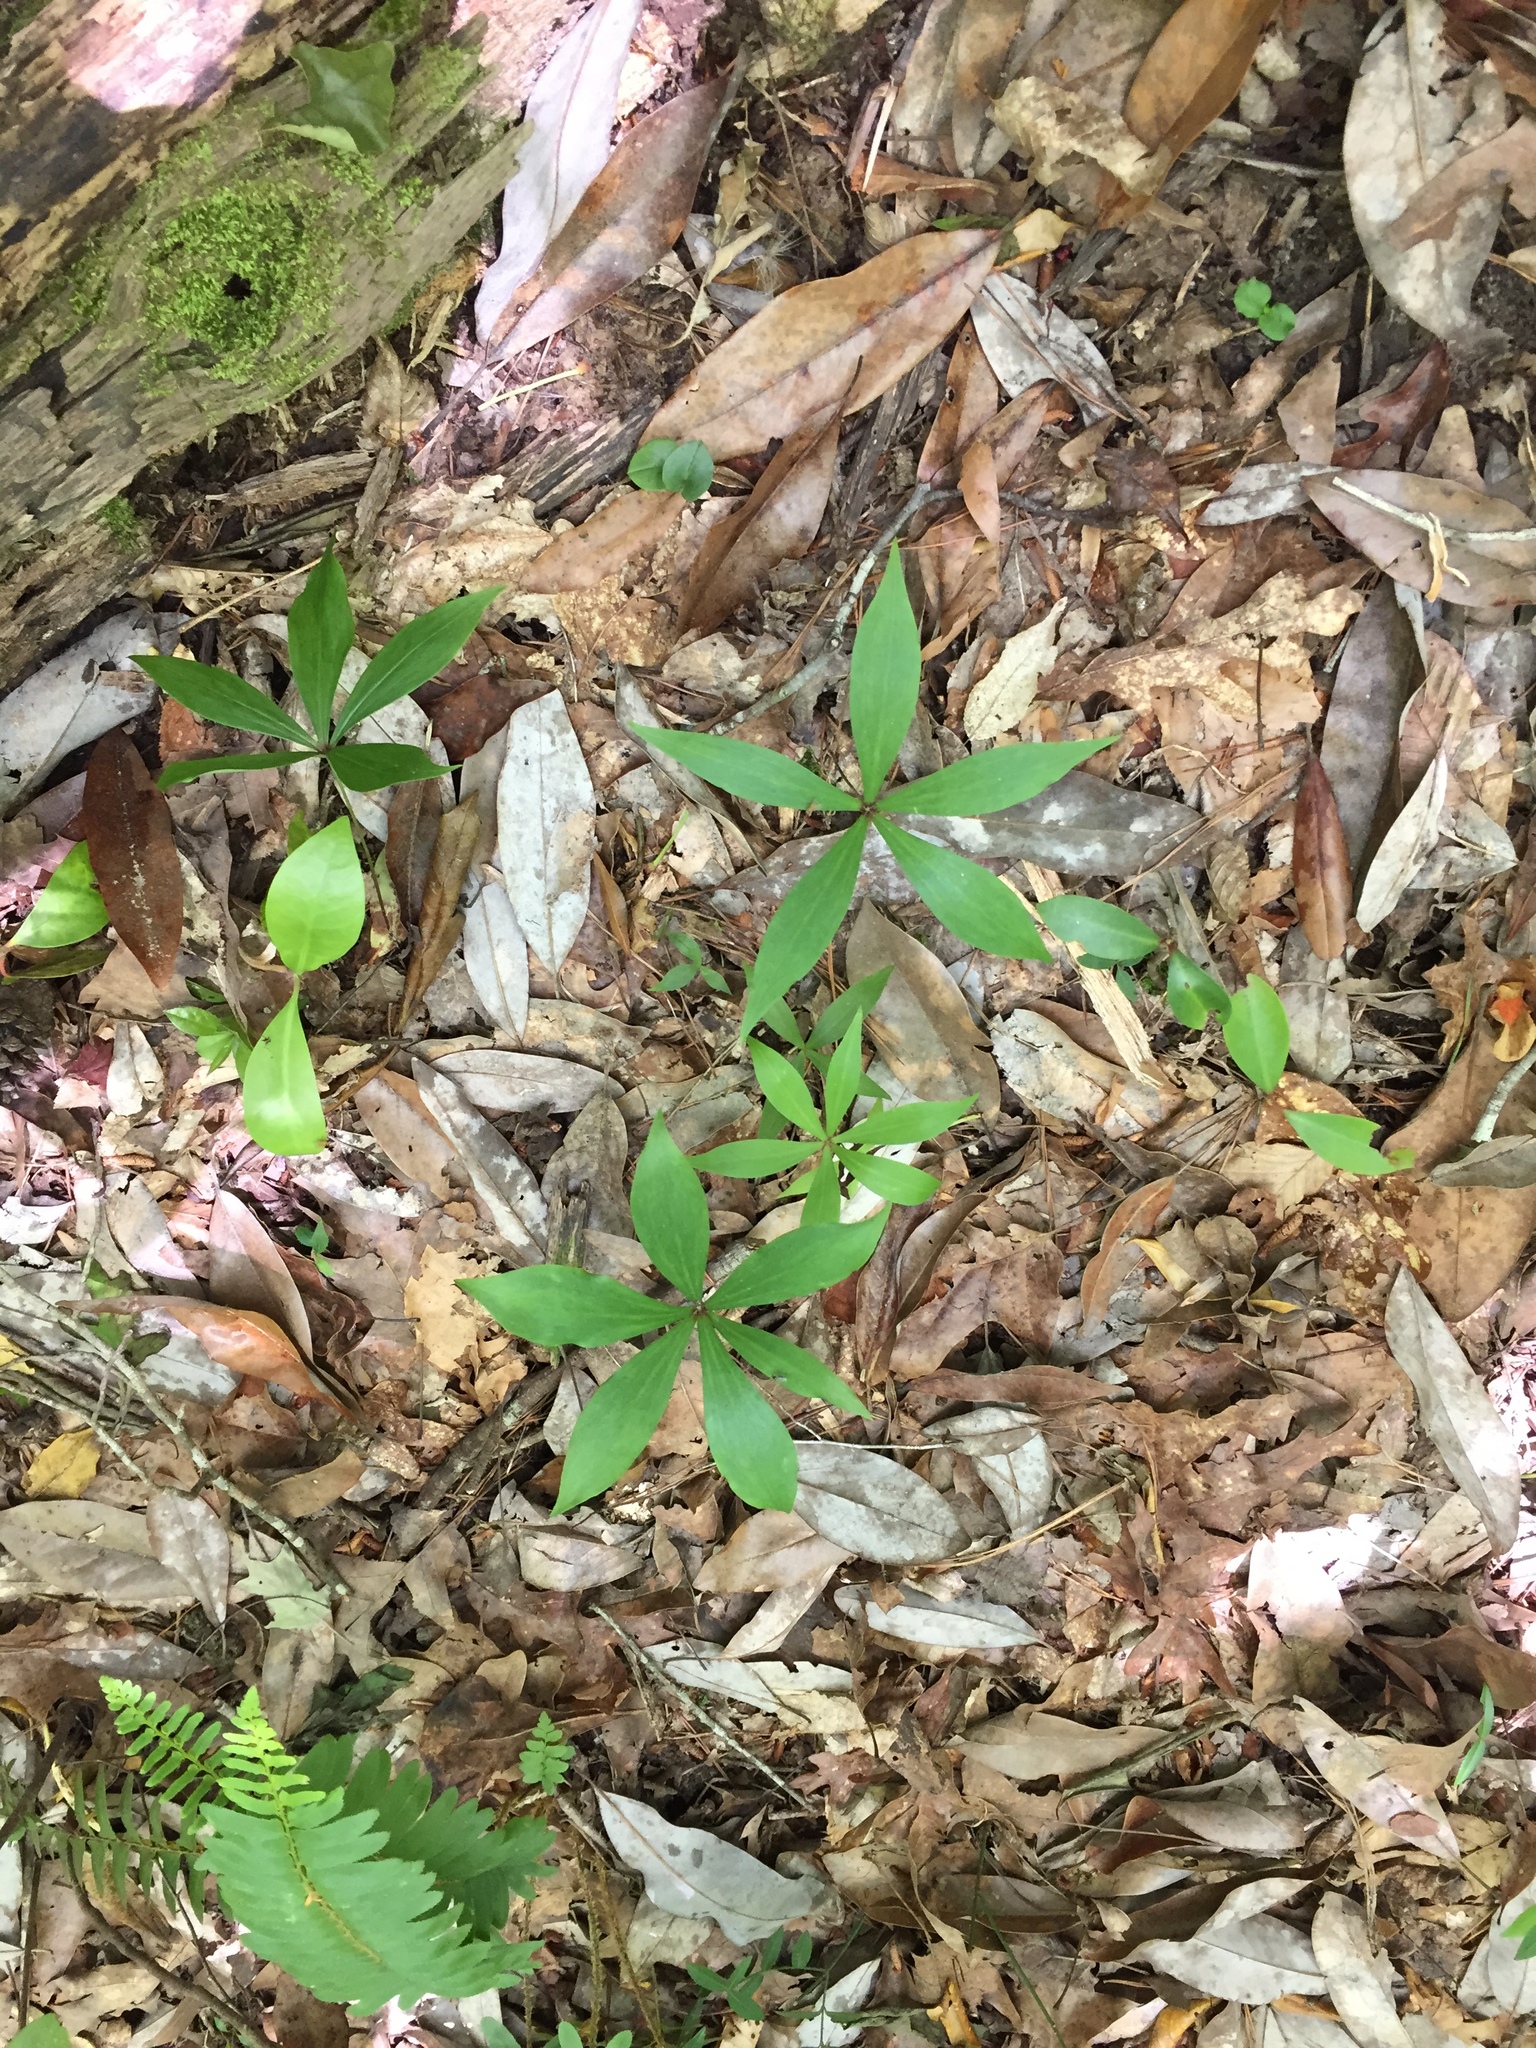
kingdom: Plantae
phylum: Tracheophyta
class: Liliopsida
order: Liliales
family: Liliaceae
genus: Medeola
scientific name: Medeola virginiana
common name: Indian cucumber-root
